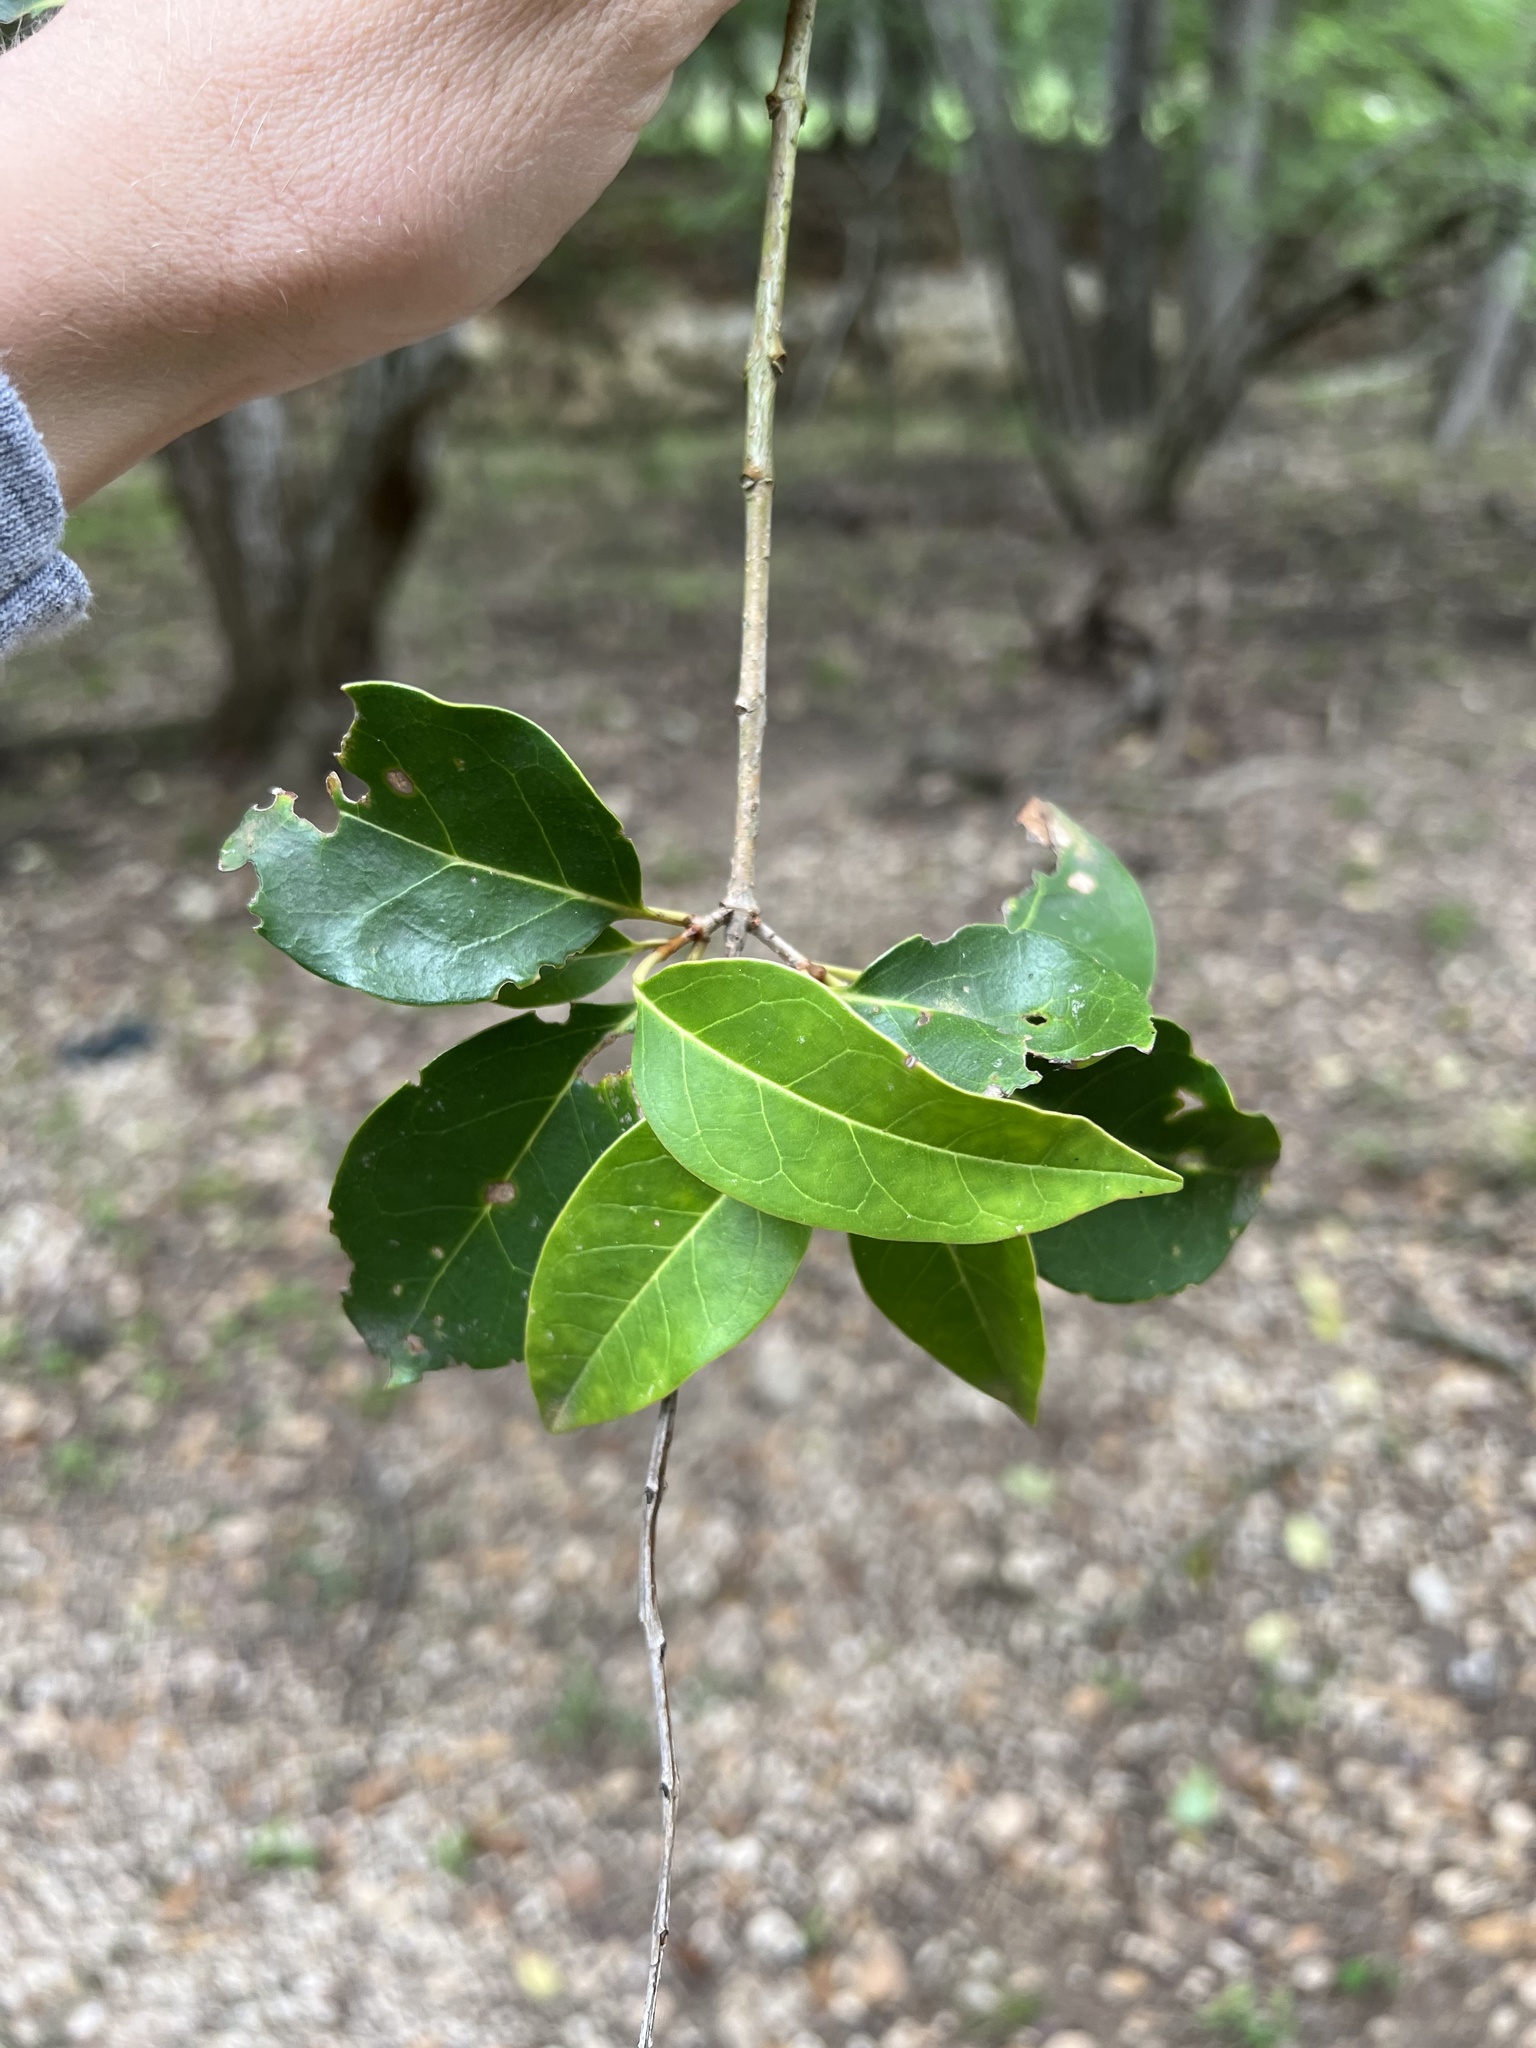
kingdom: Plantae
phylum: Tracheophyta
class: Magnoliopsida
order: Lamiales
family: Oleaceae
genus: Ligustrum
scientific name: Ligustrum lucidum
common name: Glossy privet
